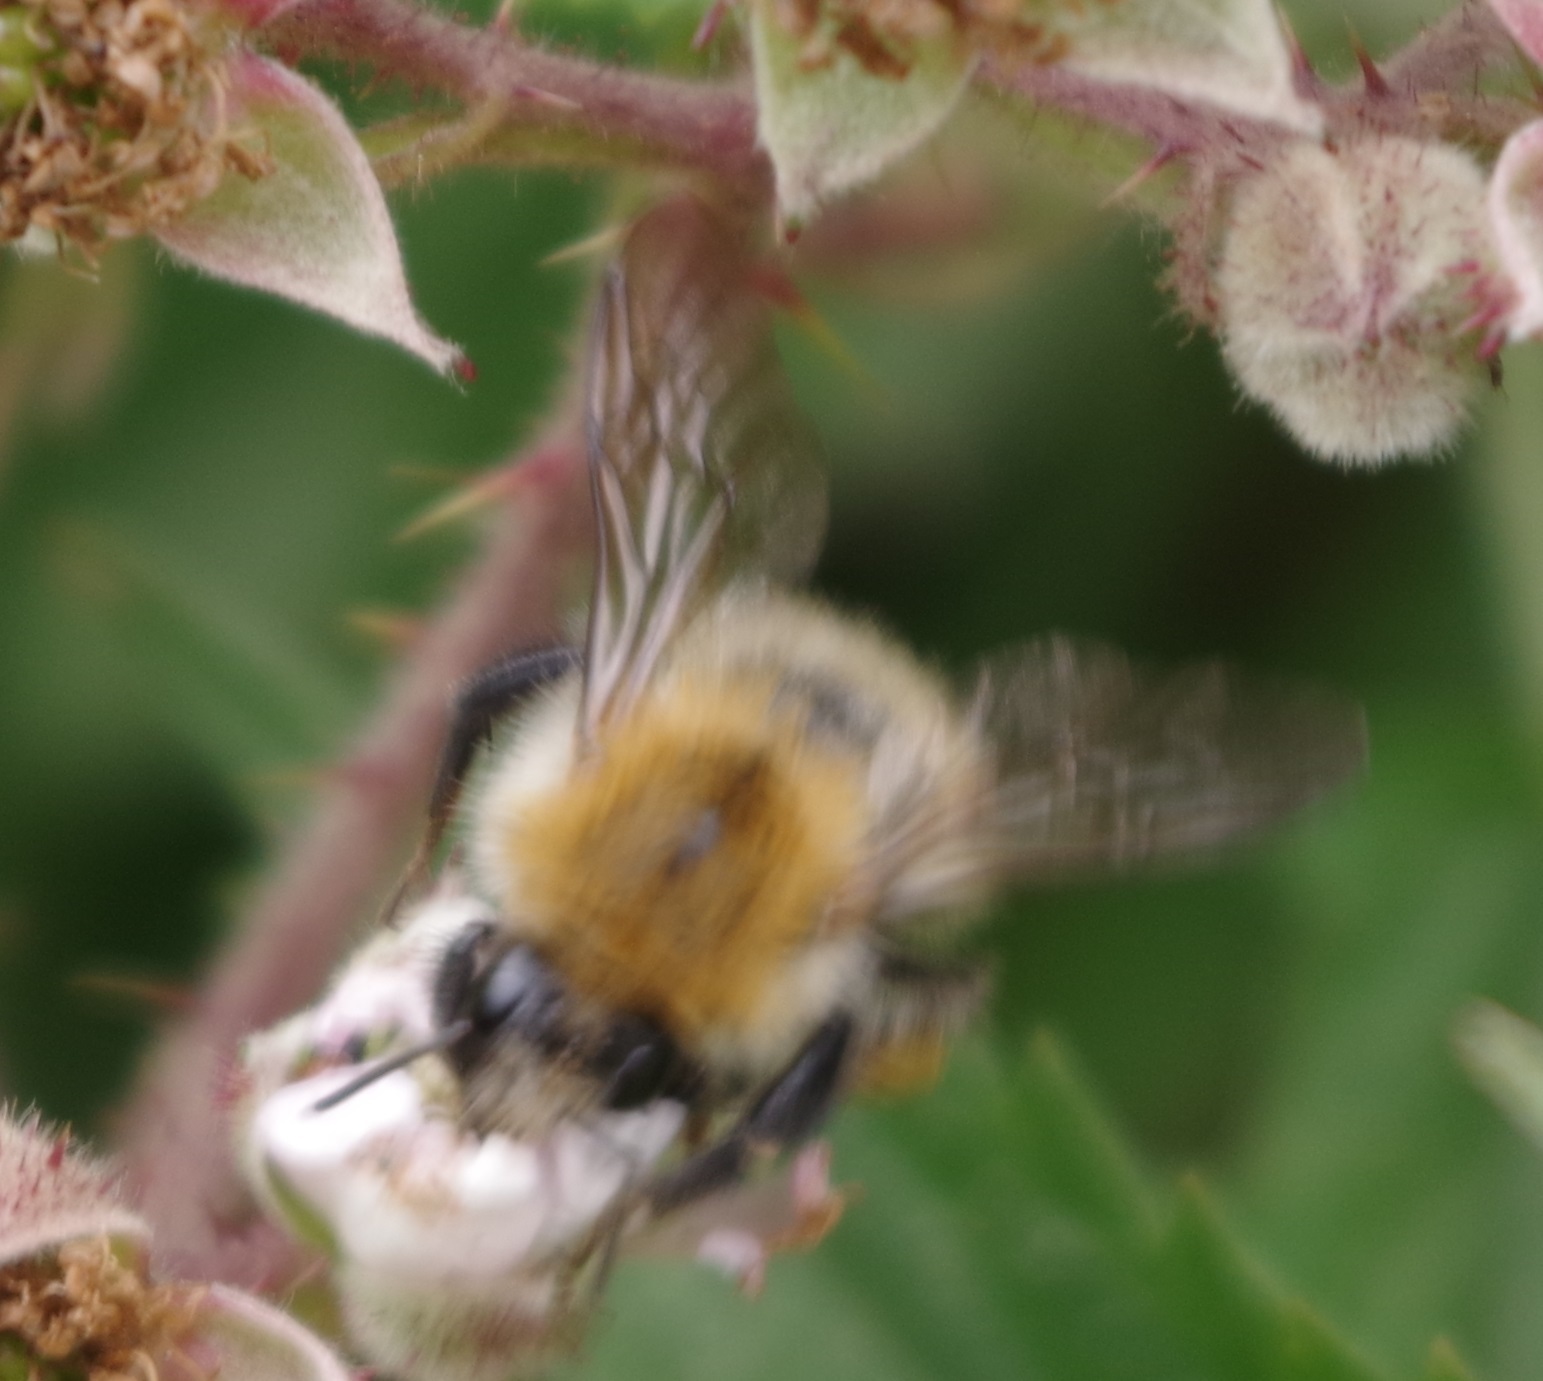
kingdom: Animalia
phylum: Arthropoda
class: Insecta
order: Hymenoptera
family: Apidae
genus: Bombus
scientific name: Bombus pascuorum
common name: Common carder bee
